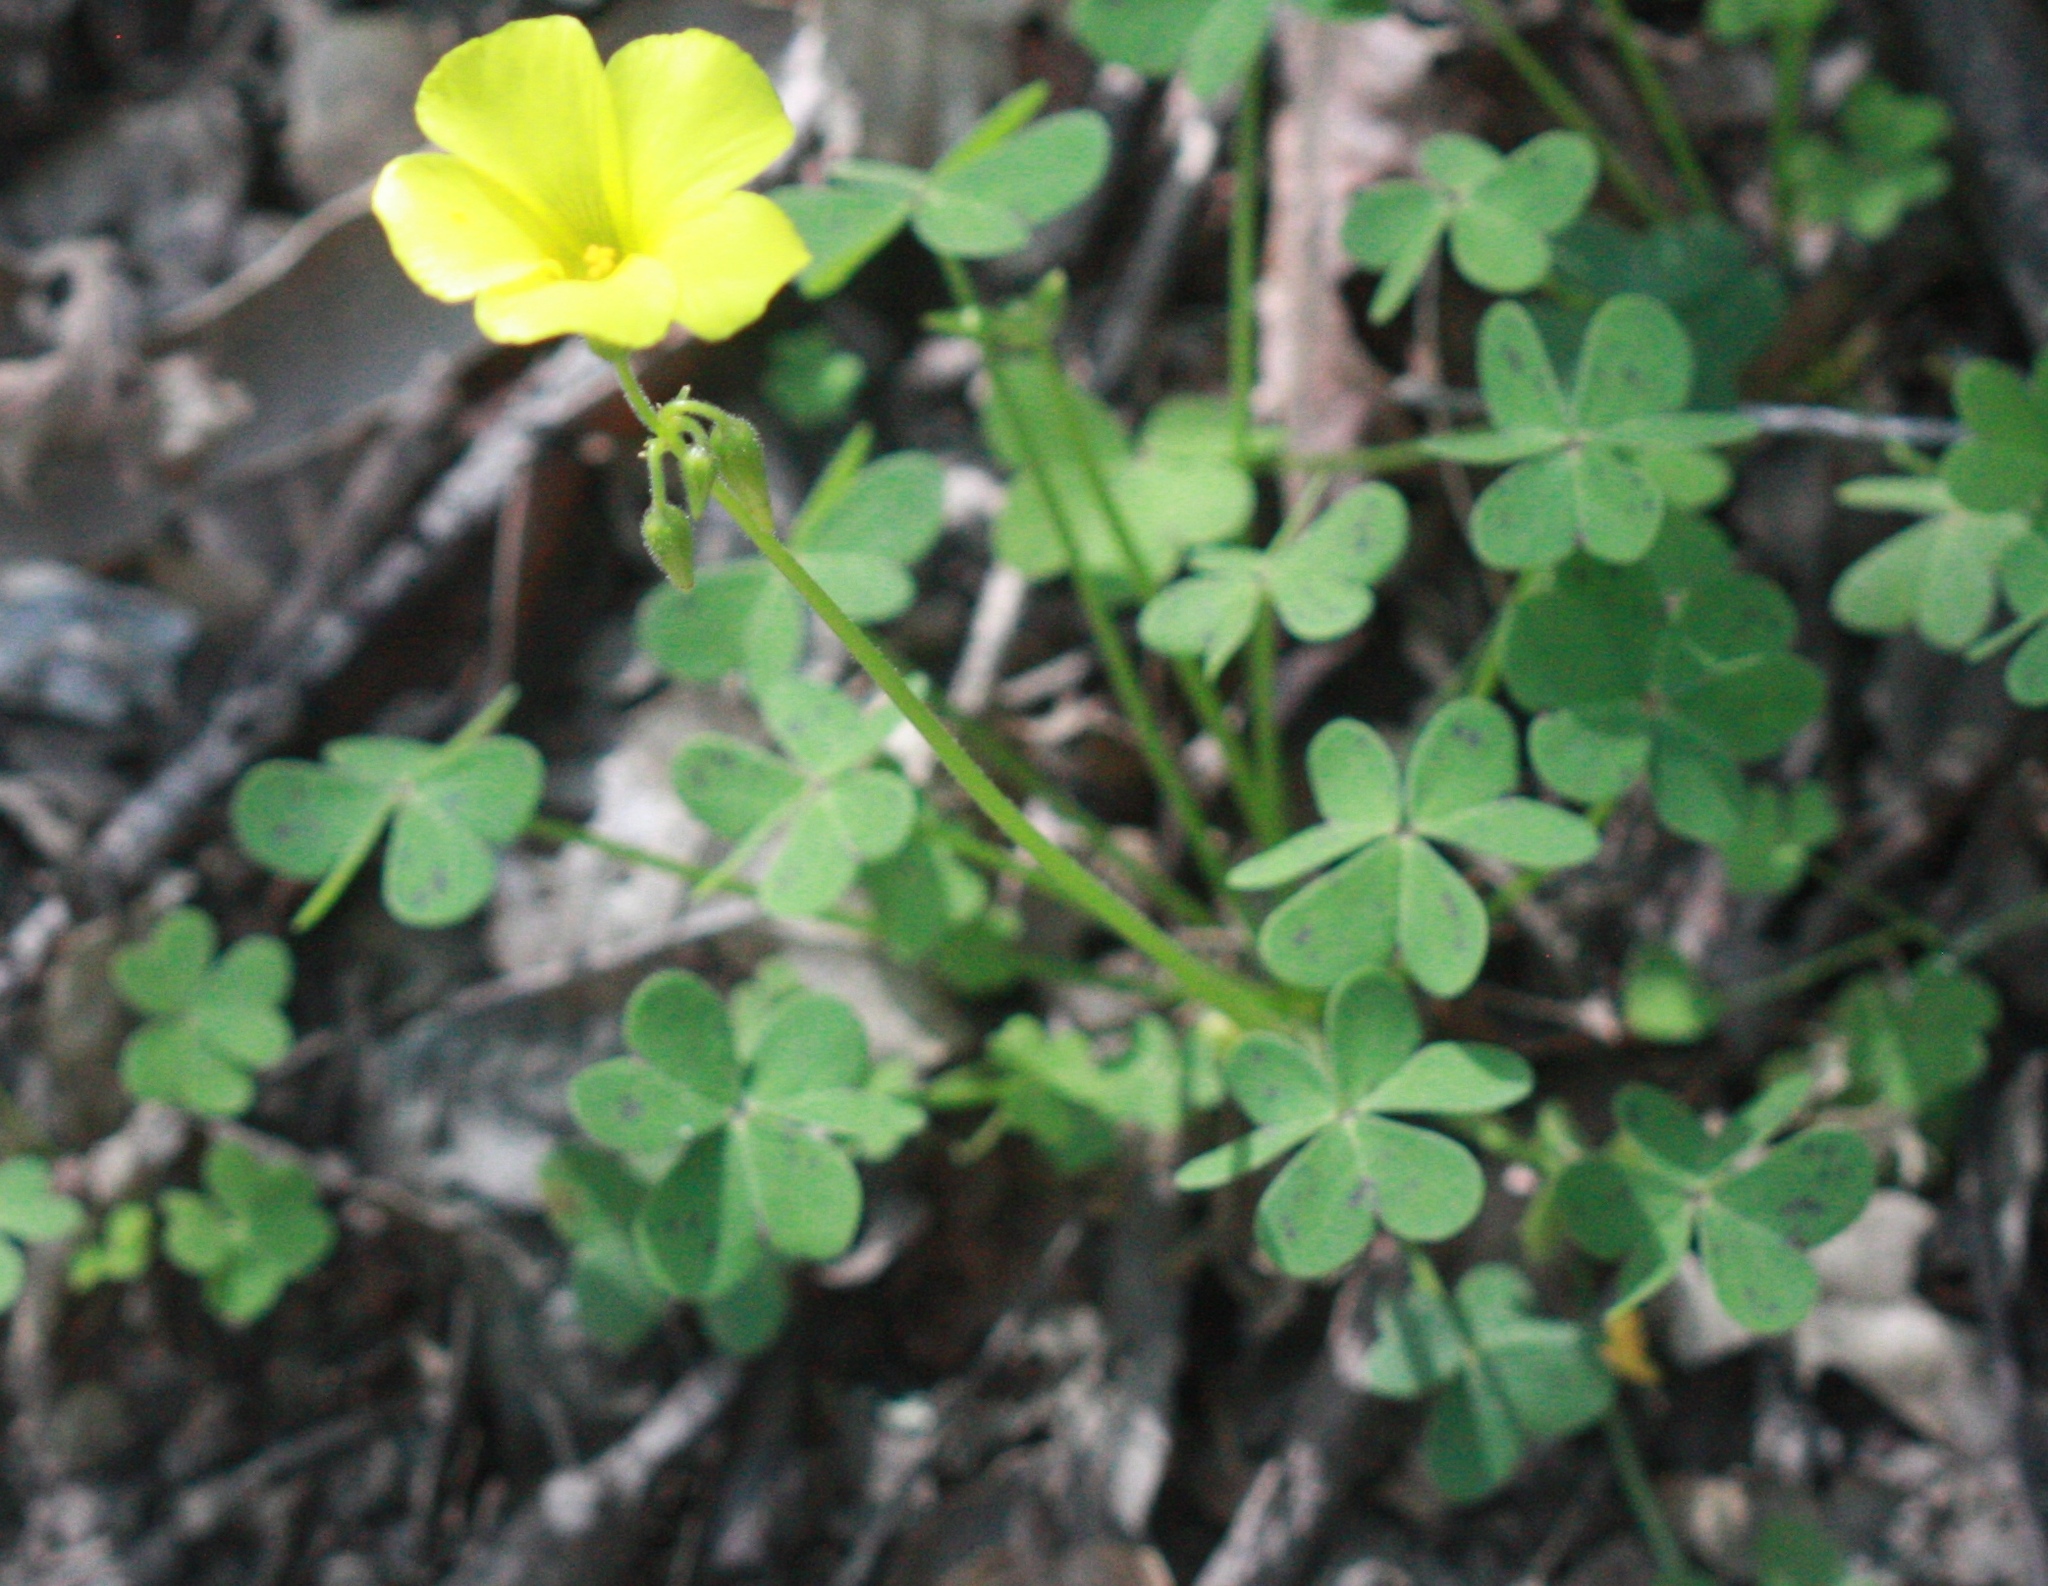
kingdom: Plantae
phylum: Tracheophyta
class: Magnoliopsida
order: Oxalidales
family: Oxalidaceae
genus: Oxalis
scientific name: Oxalis pes-caprae
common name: Bermuda-buttercup
